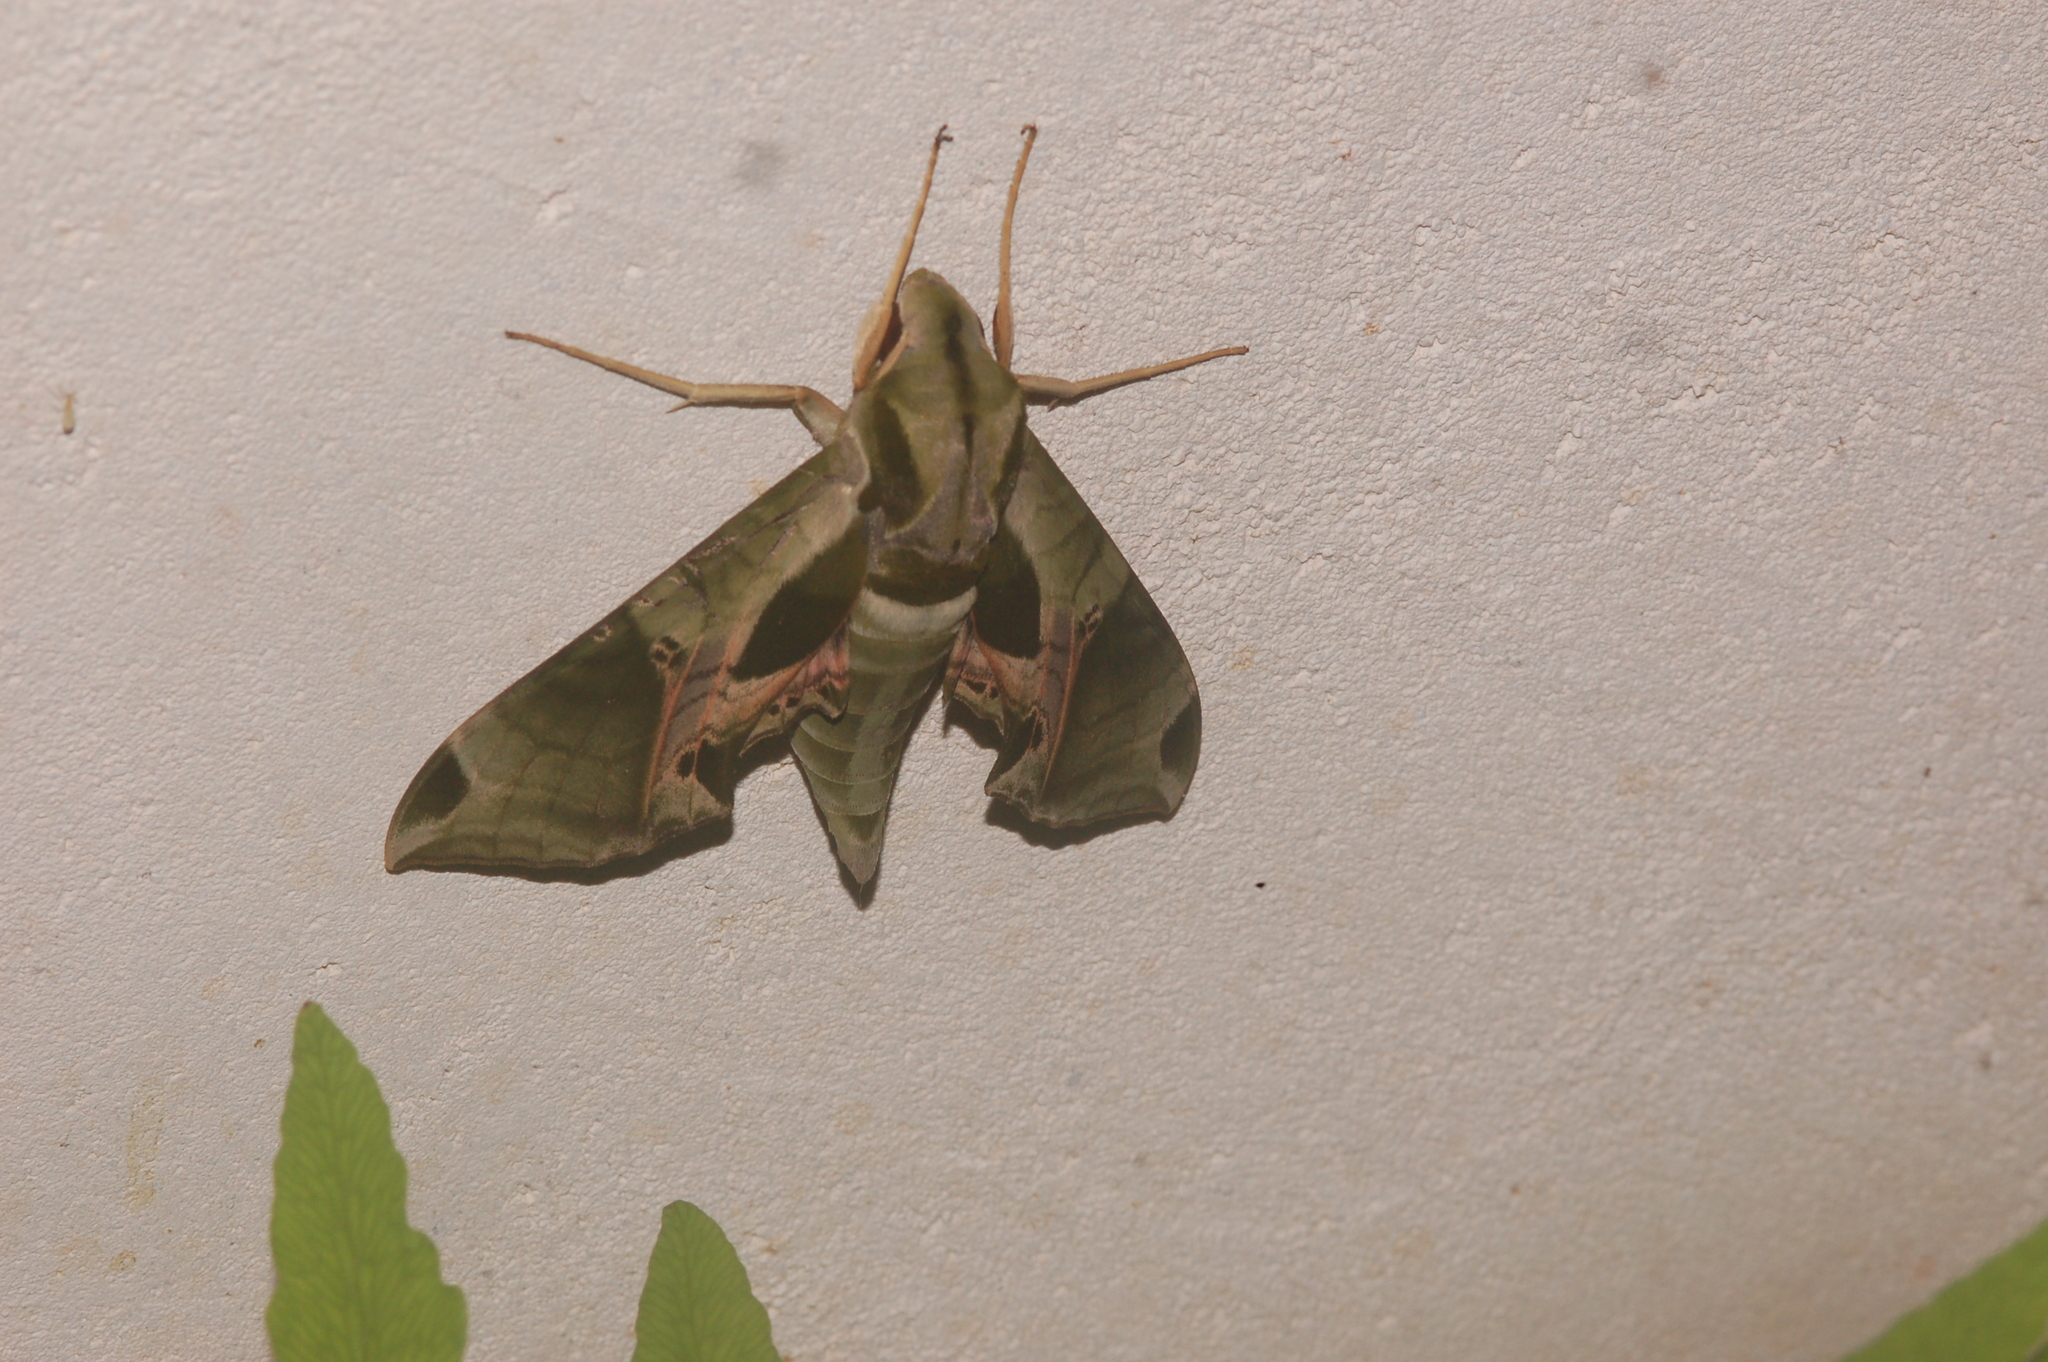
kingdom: Animalia
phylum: Arthropoda
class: Insecta
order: Lepidoptera
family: Sphingidae
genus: Eumorpha
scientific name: Eumorpha pandorus
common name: Pandora sphinx
